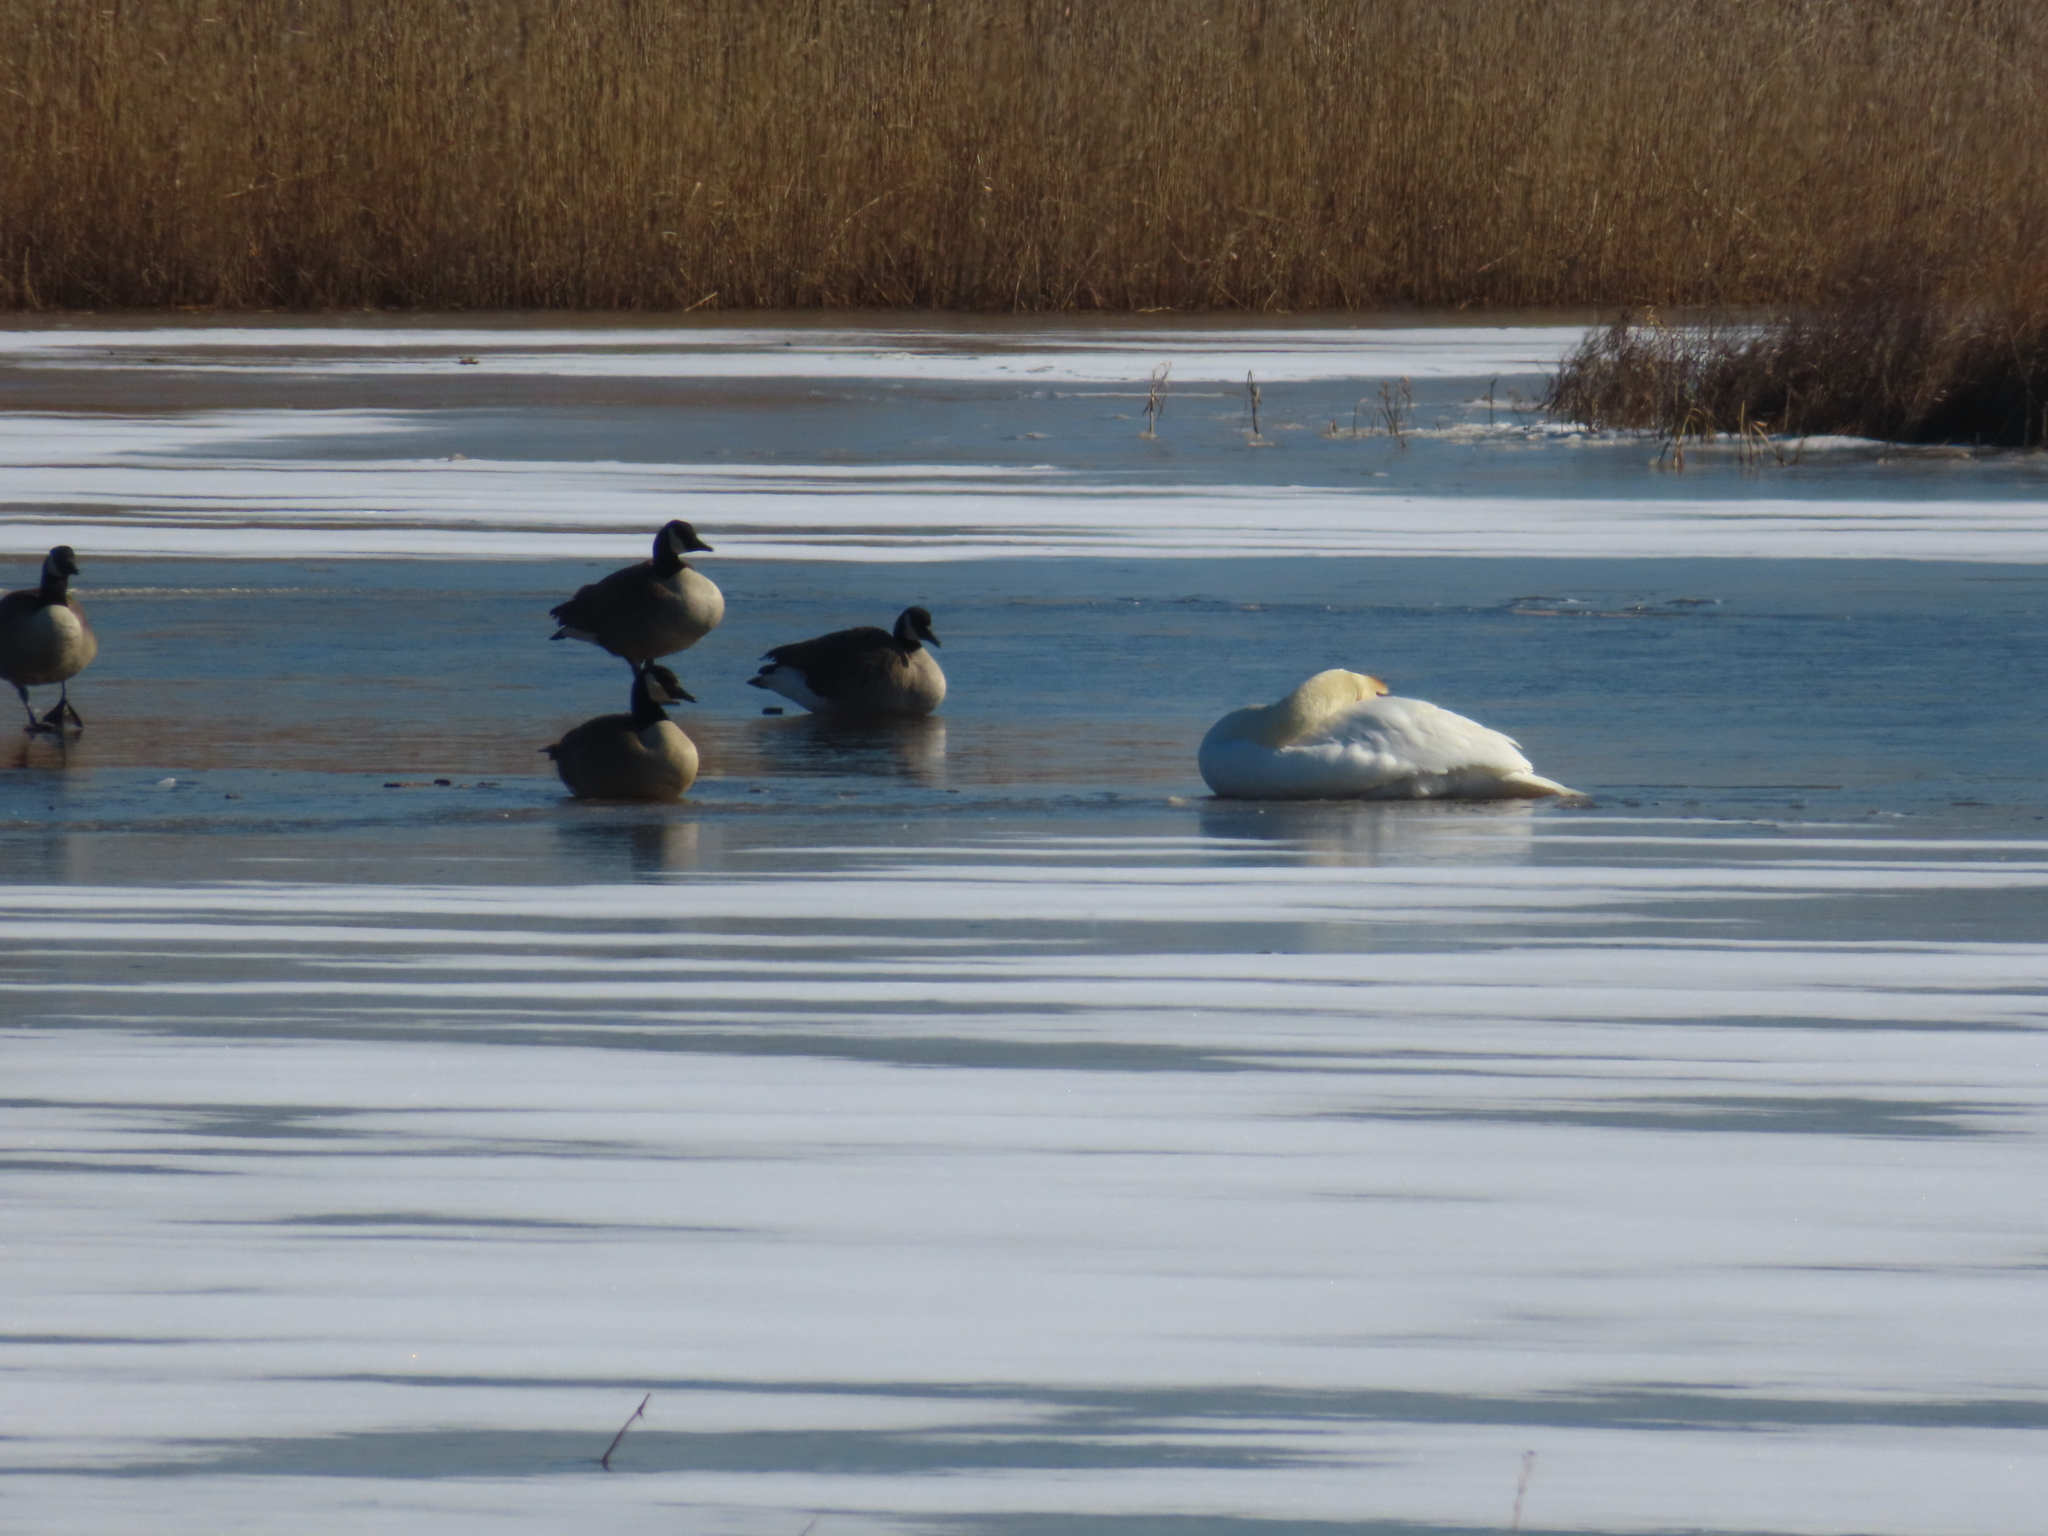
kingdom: Animalia
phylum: Chordata
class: Aves
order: Anseriformes
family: Anatidae
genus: Branta
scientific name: Branta canadensis
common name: Canada goose
